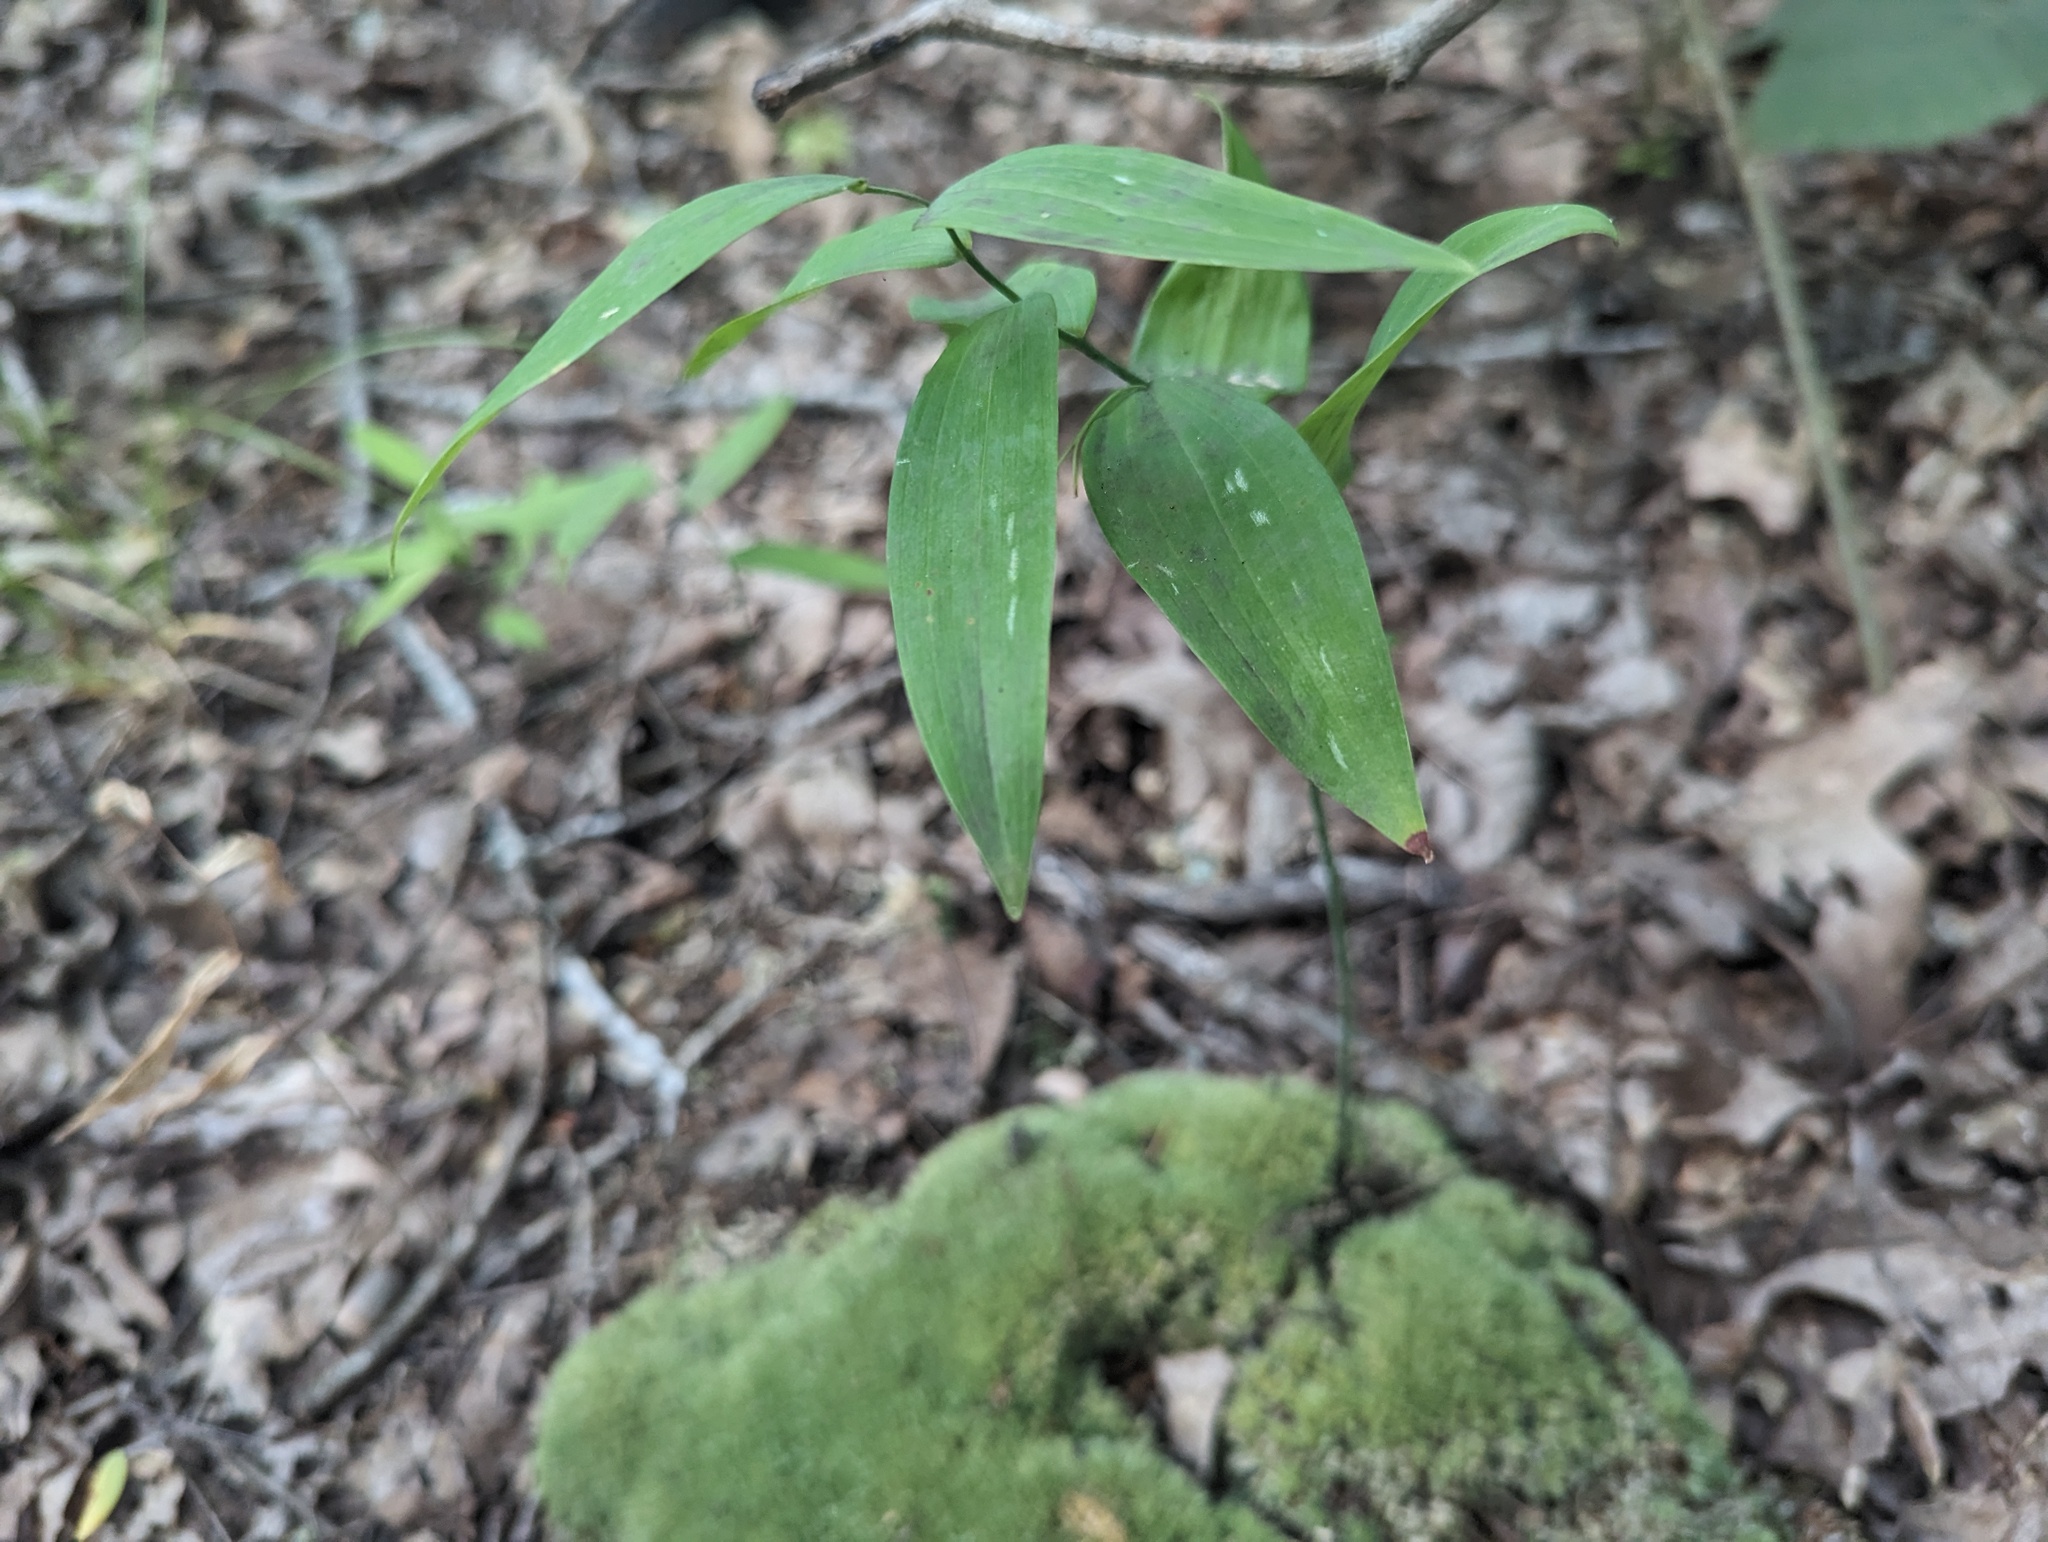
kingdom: Plantae
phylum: Tracheophyta
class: Liliopsida
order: Asparagales
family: Asparagaceae
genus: Polygonatum
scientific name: Polygonatum biflorum
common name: American solomon's-seal
